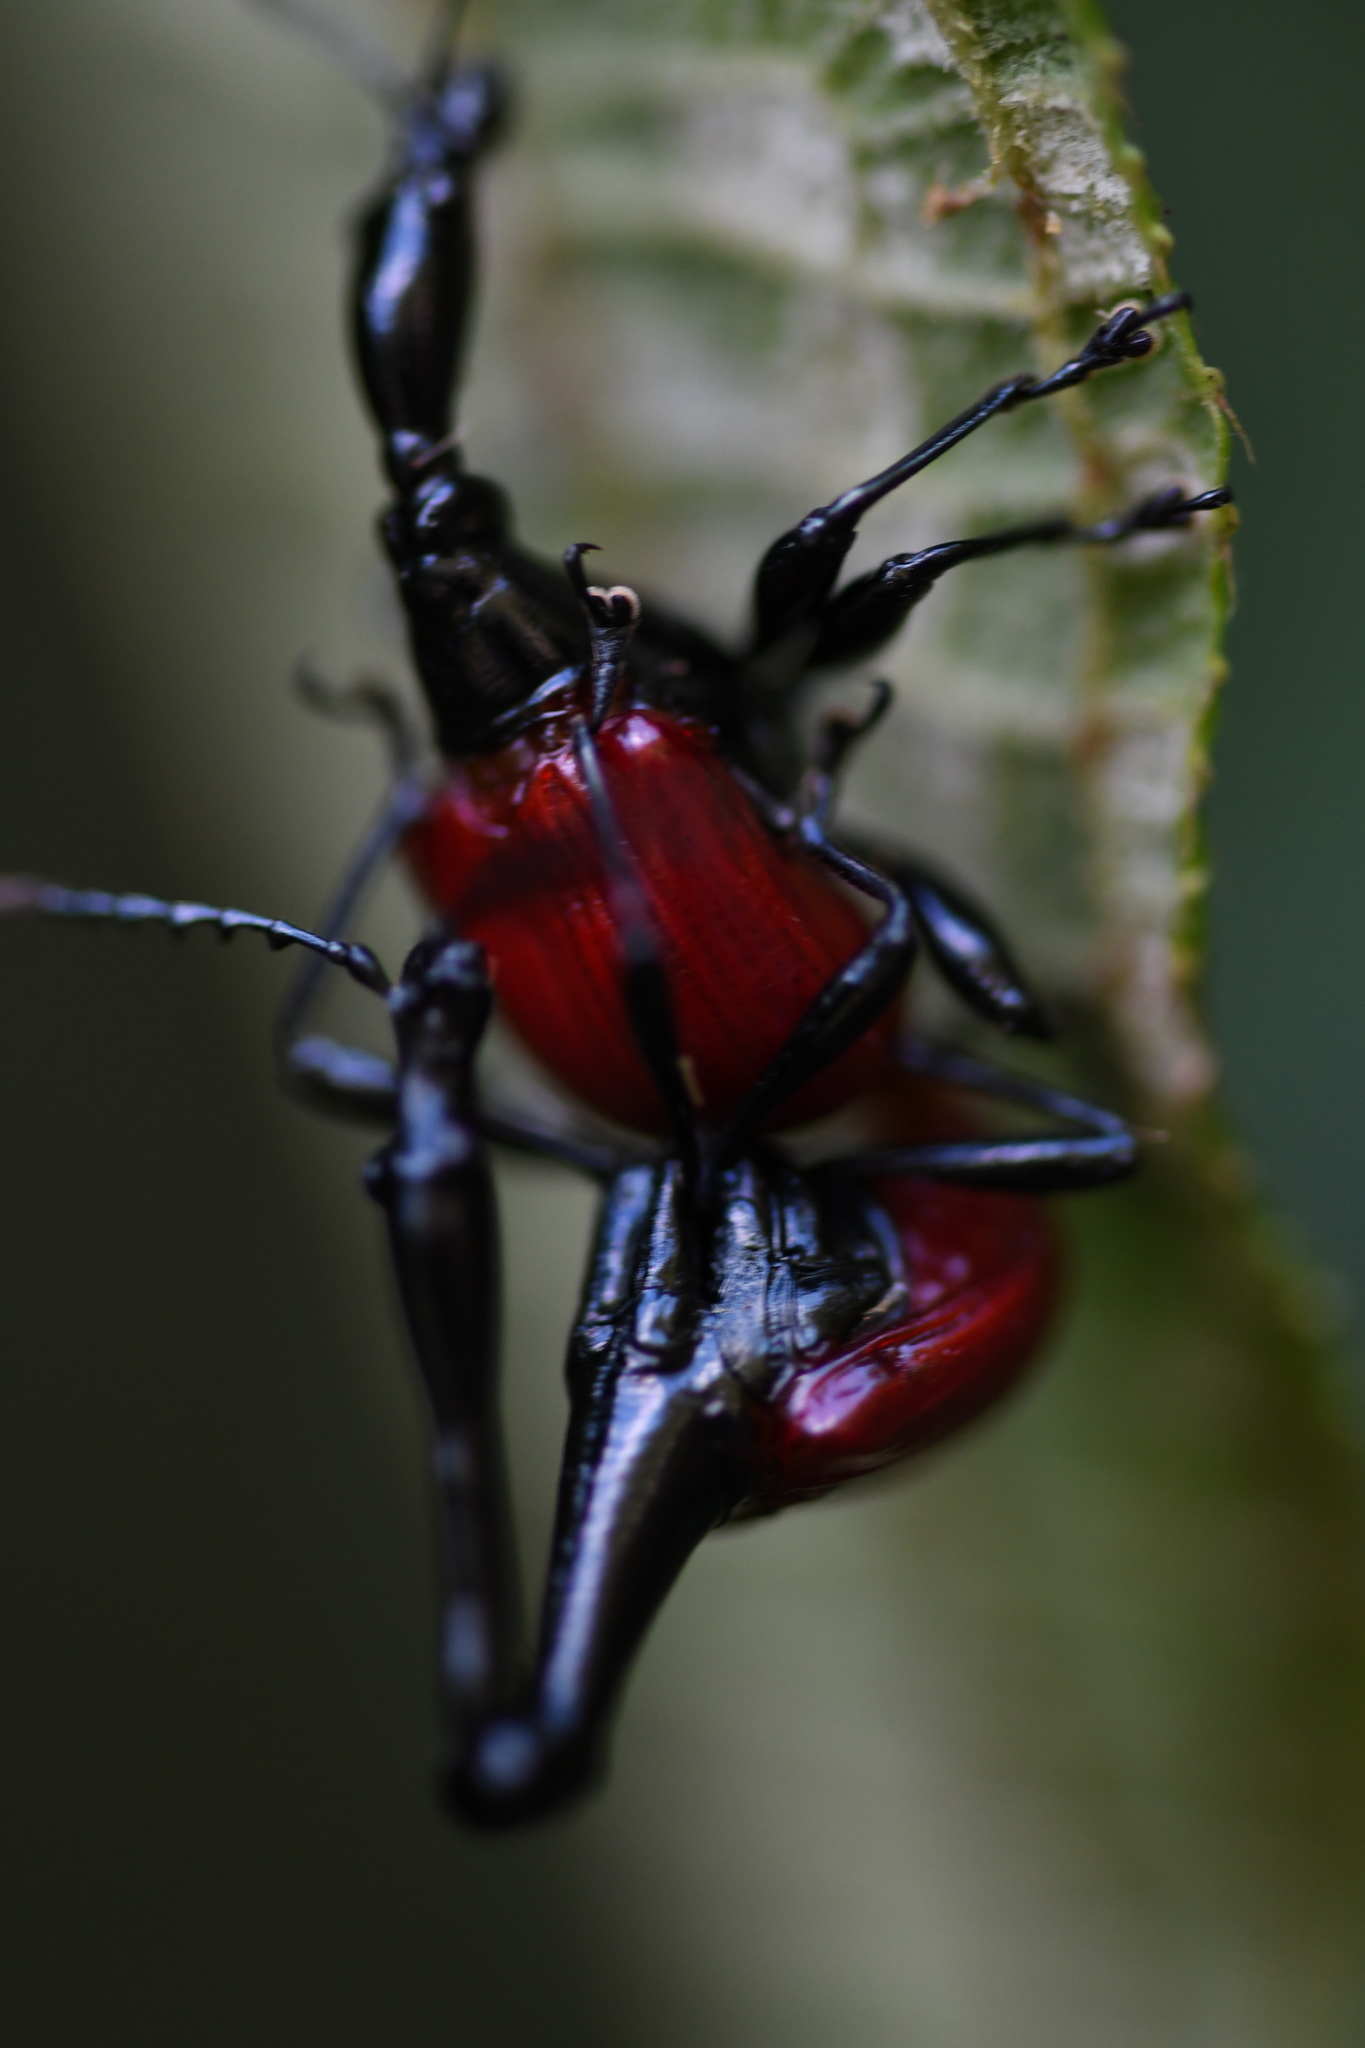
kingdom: Animalia
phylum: Arthropoda
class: Insecta
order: Coleoptera
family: Attelabidae
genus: Trachelophorus
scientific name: Trachelophorus giraffa
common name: Giraffe weevil
